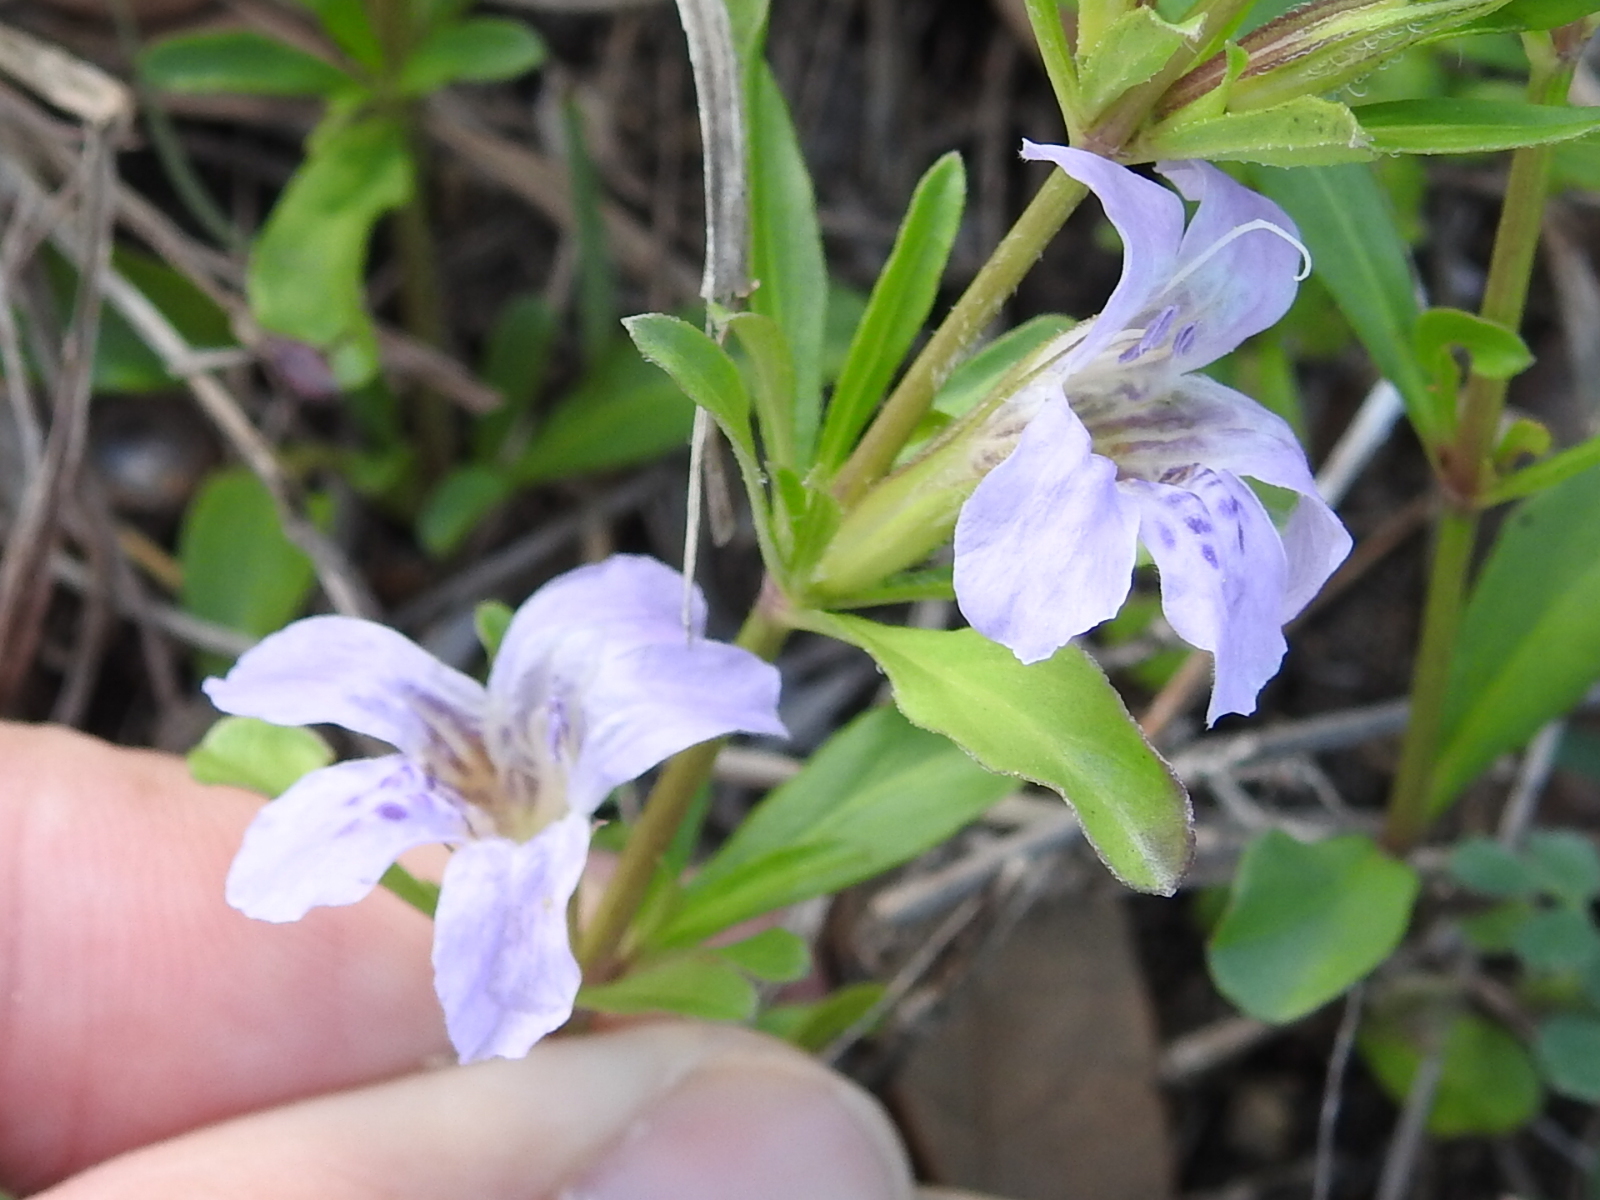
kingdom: Plantae
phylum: Tracheophyta
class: Magnoliopsida
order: Lamiales
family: Acanthaceae
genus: Dyschoriste
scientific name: Dyschoriste linearis
